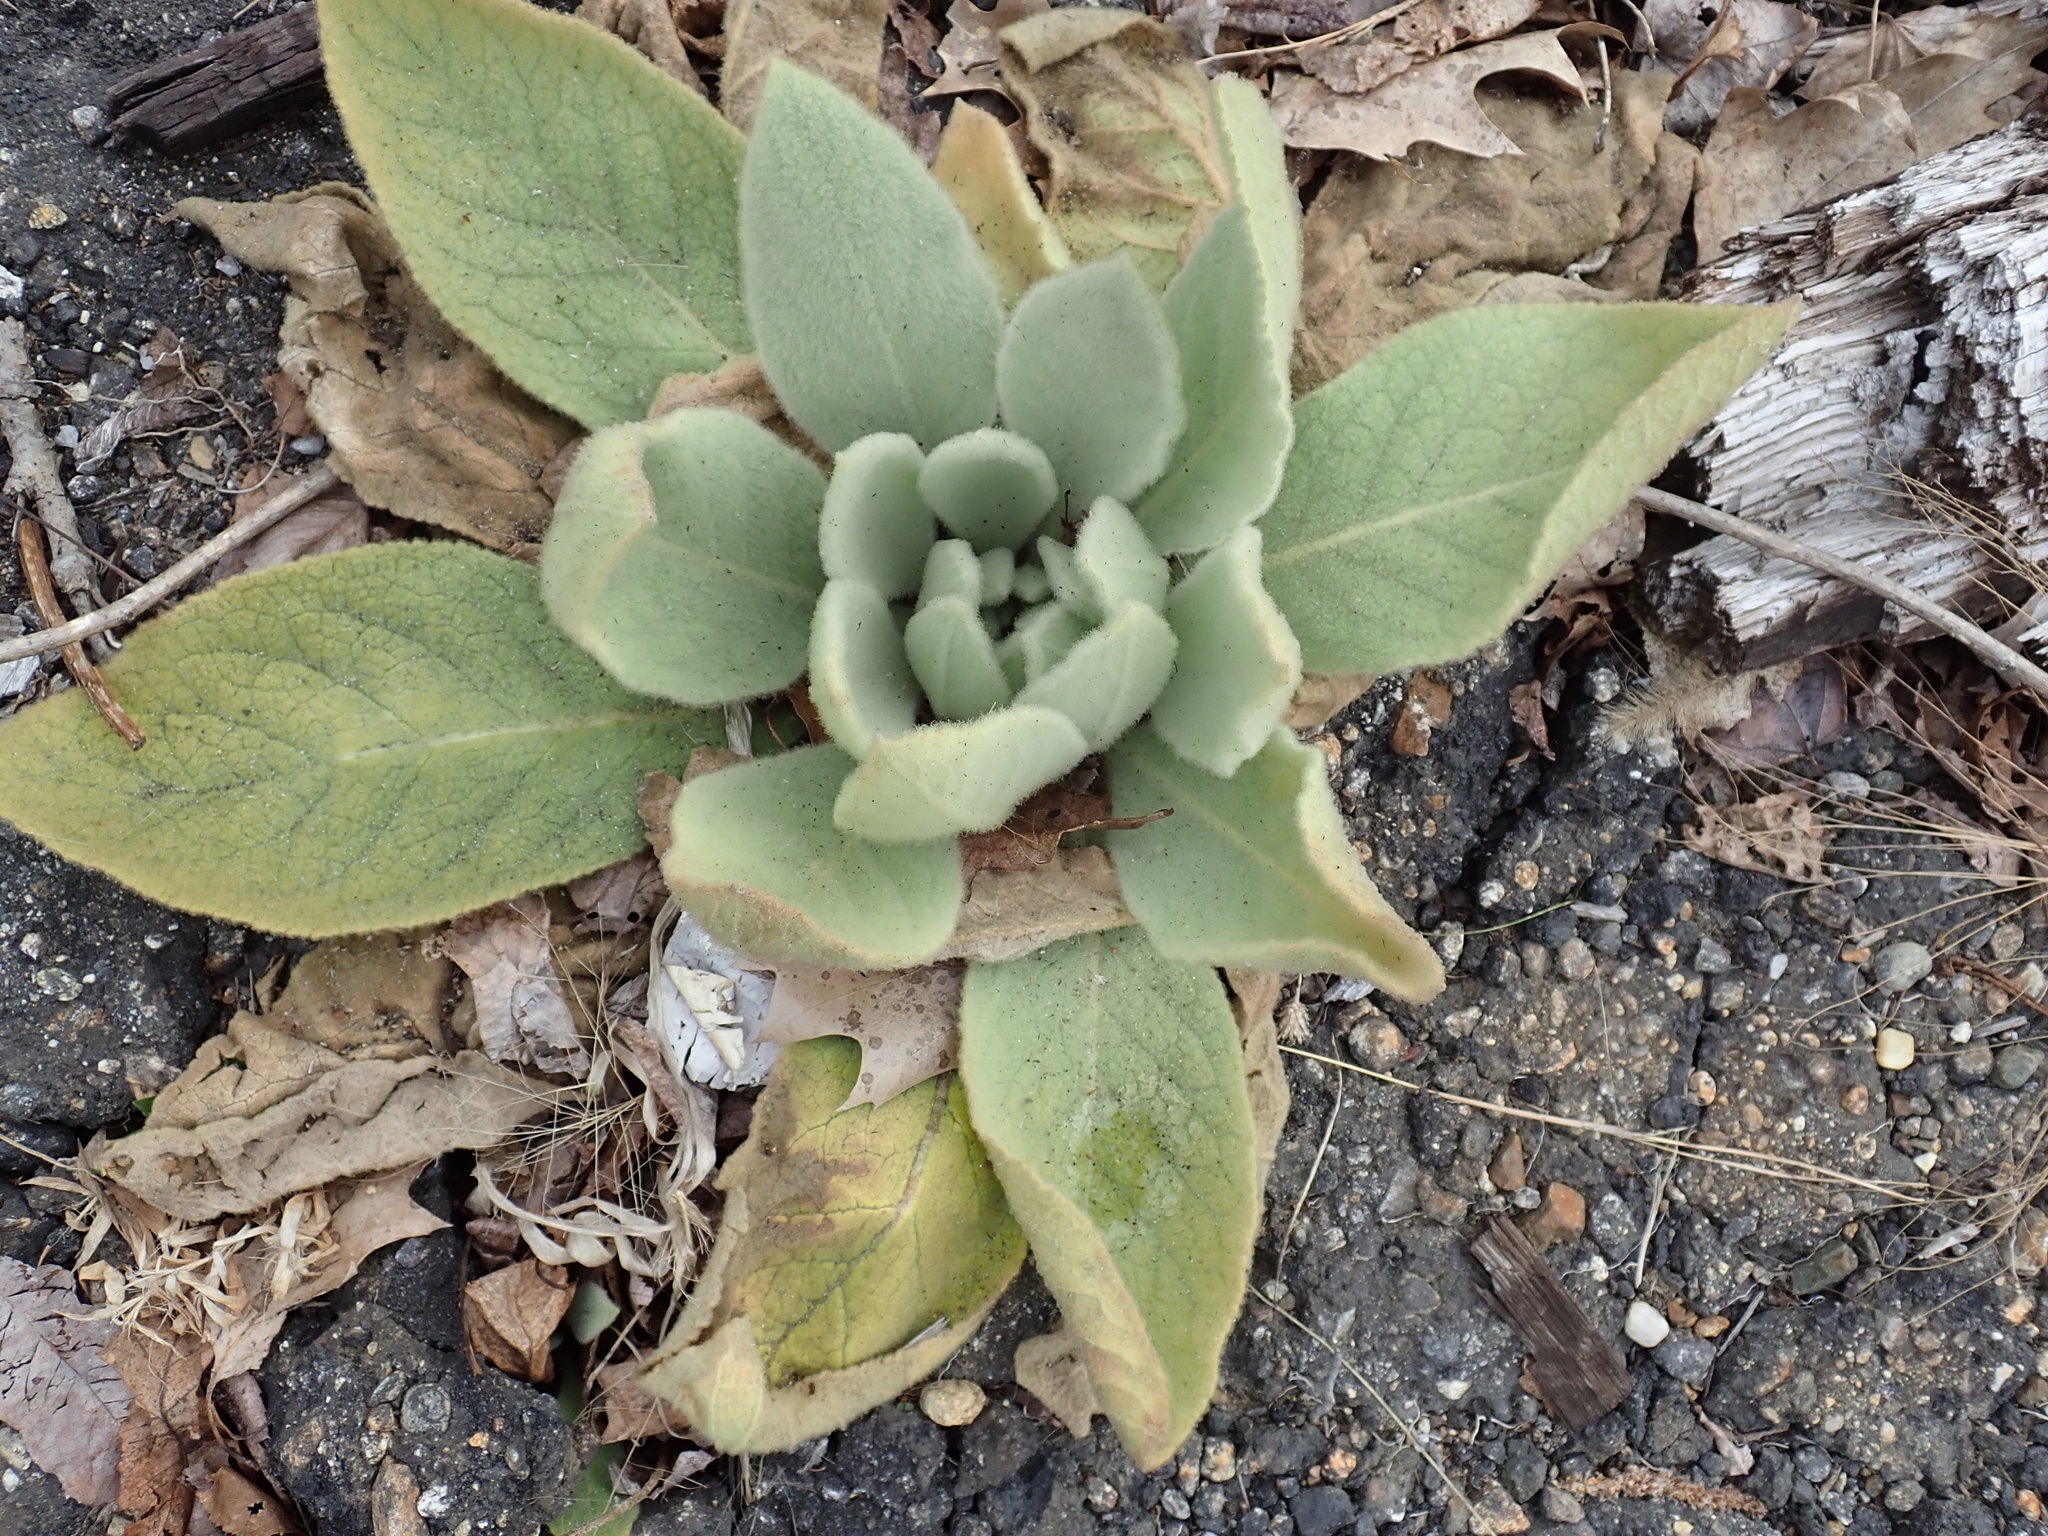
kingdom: Plantae
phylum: Tracheophyta
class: Magnoliopsida
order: Lamiales
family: Scrophulariaceae
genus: Verbascum
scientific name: Verbascum thapsus
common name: Common mullein
